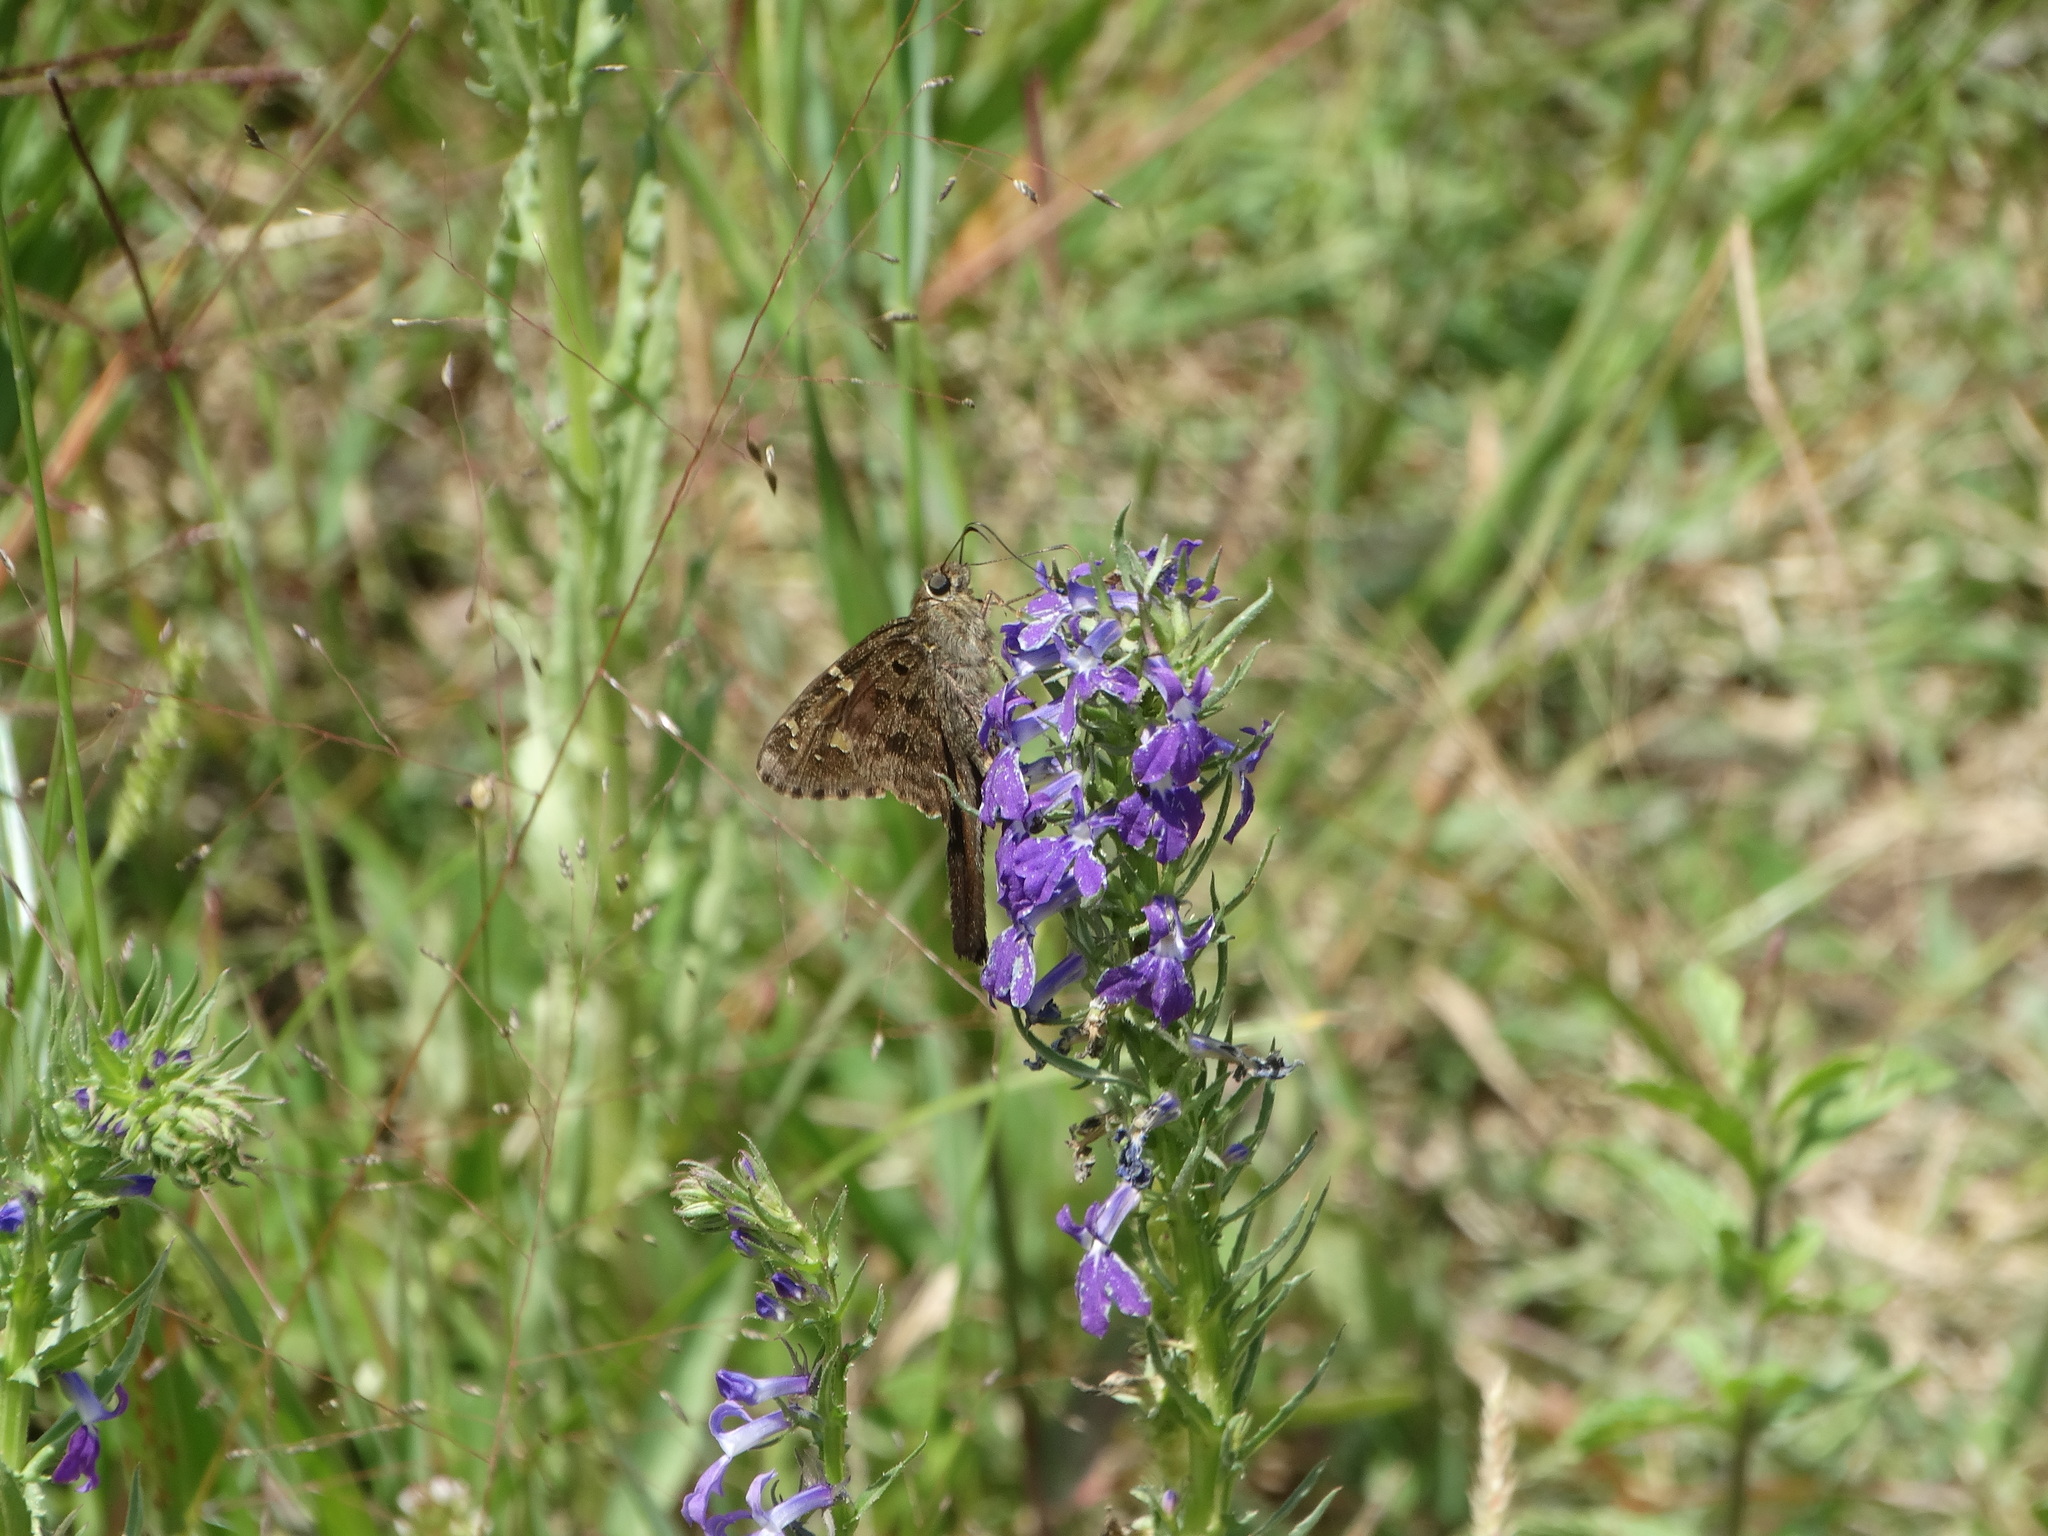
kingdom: Animalia
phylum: Arthropoda
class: Insecta
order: Lepidoptera
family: Hesperiidae
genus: Thorybes
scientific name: Thorybes
